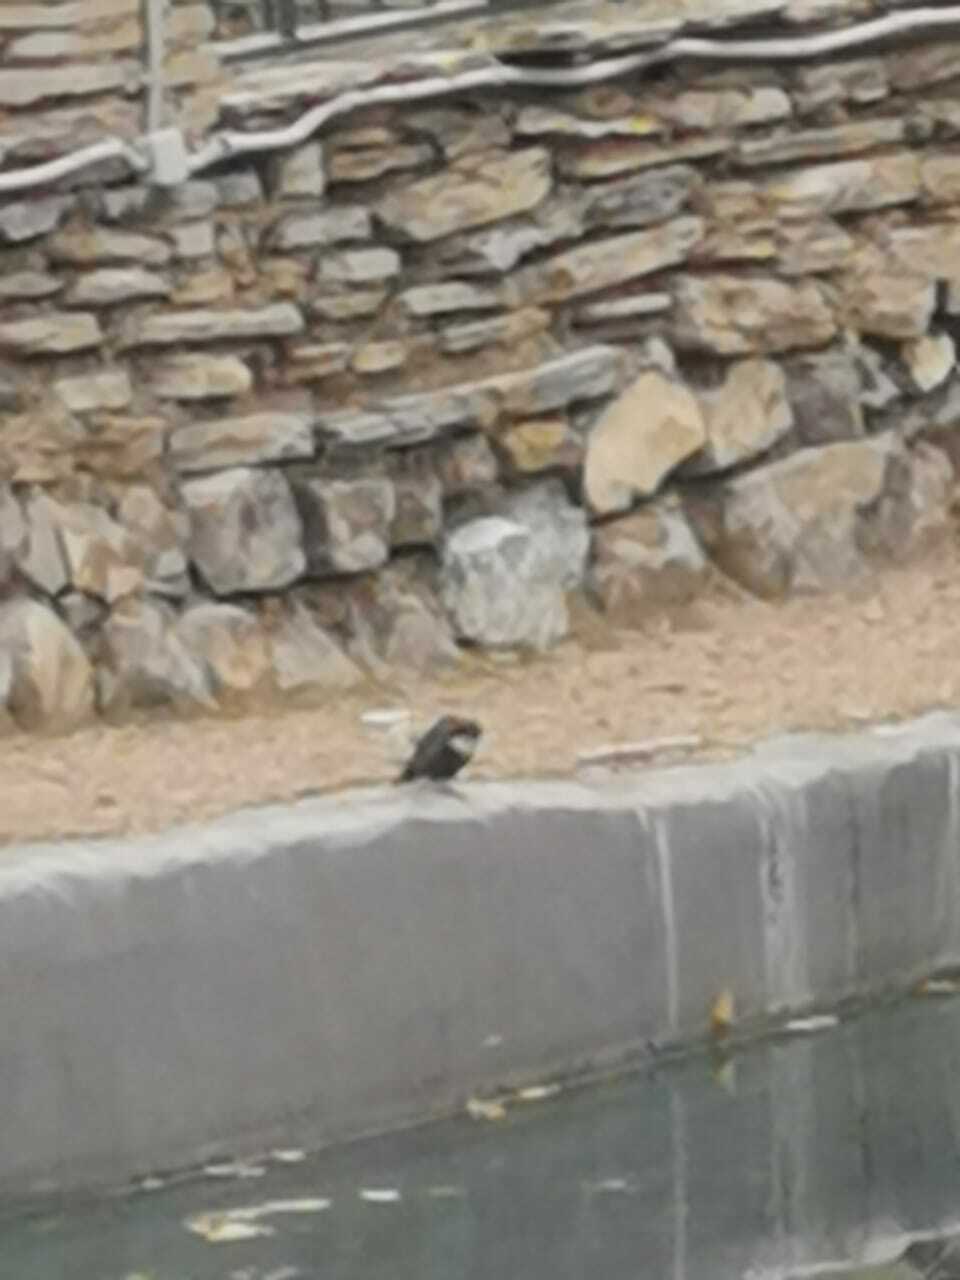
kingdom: Animalia
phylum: Chordata
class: Aves
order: Passeriformes
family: Cinclidae
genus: Cinclus
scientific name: Cinclus cinclus
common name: White-throated dipper
